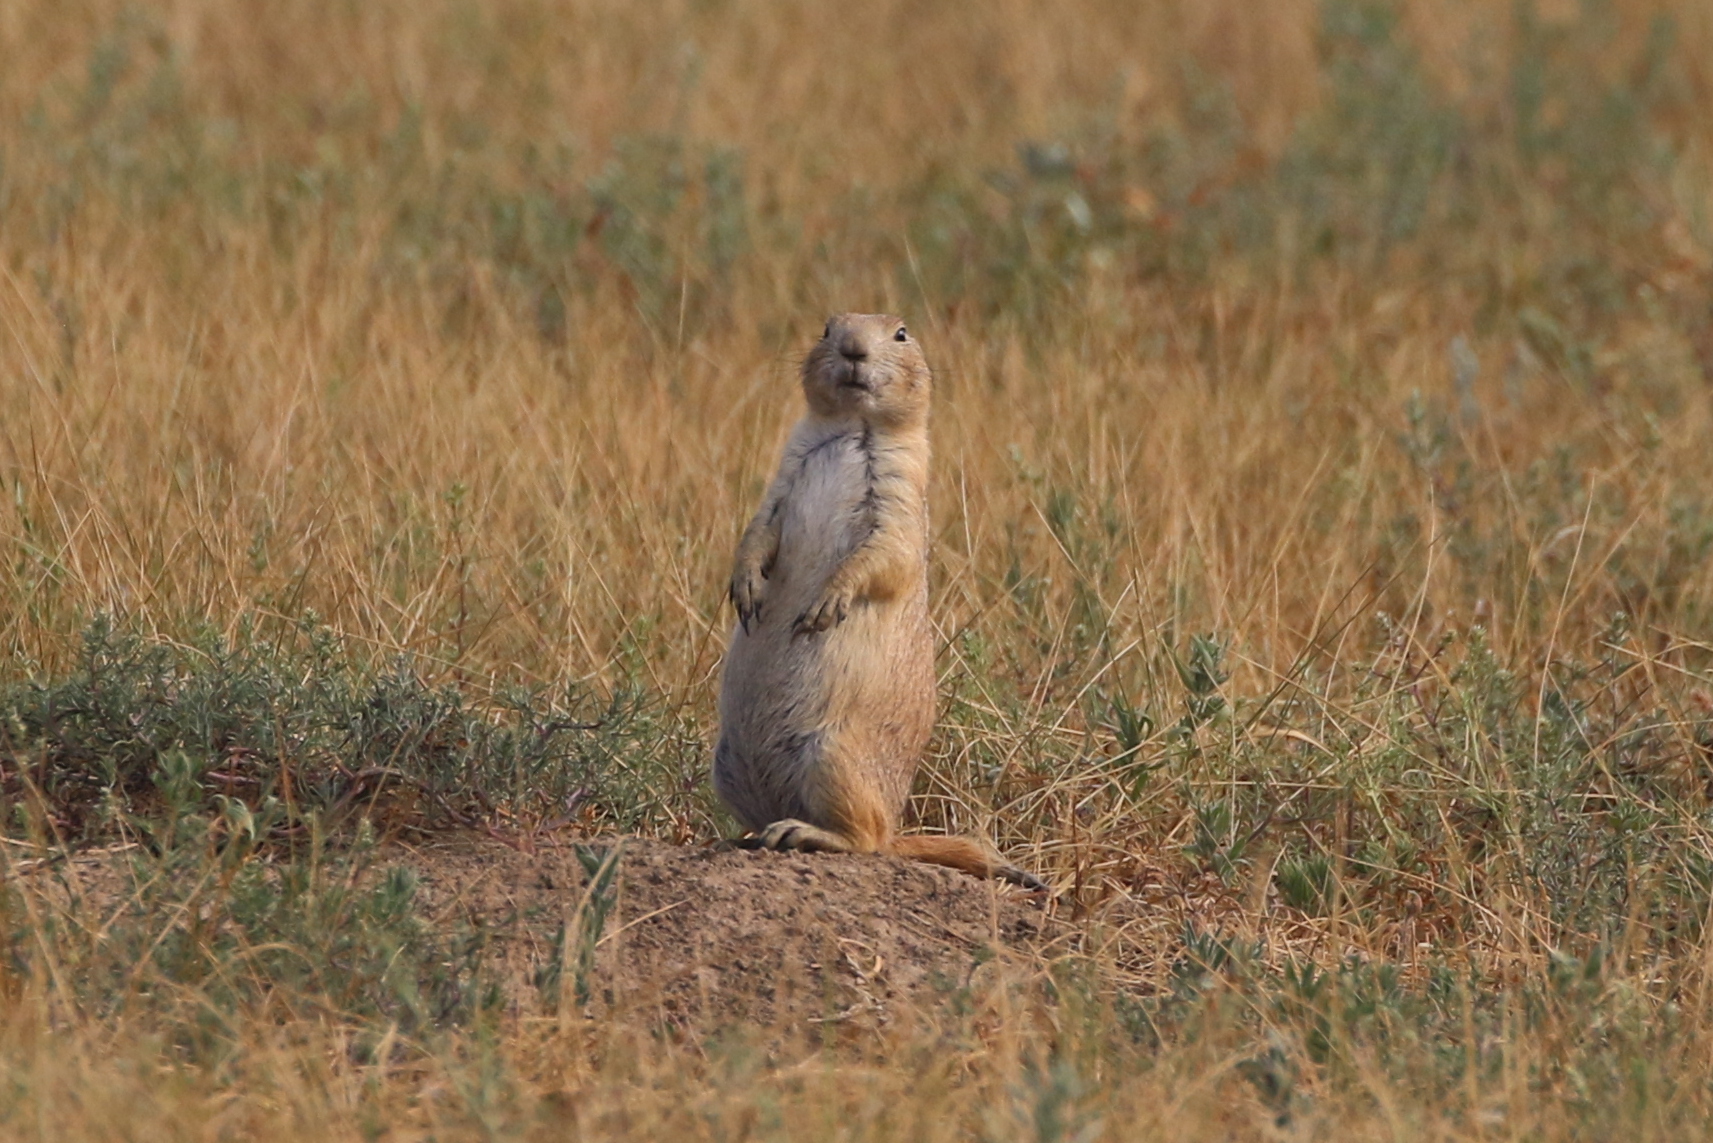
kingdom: Animalia
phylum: Chordata
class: Mammalia
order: Rodentia
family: Sciuridae
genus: Cynomys
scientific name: Cynomys ludovicianus
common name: Black-tailed prairie dog
